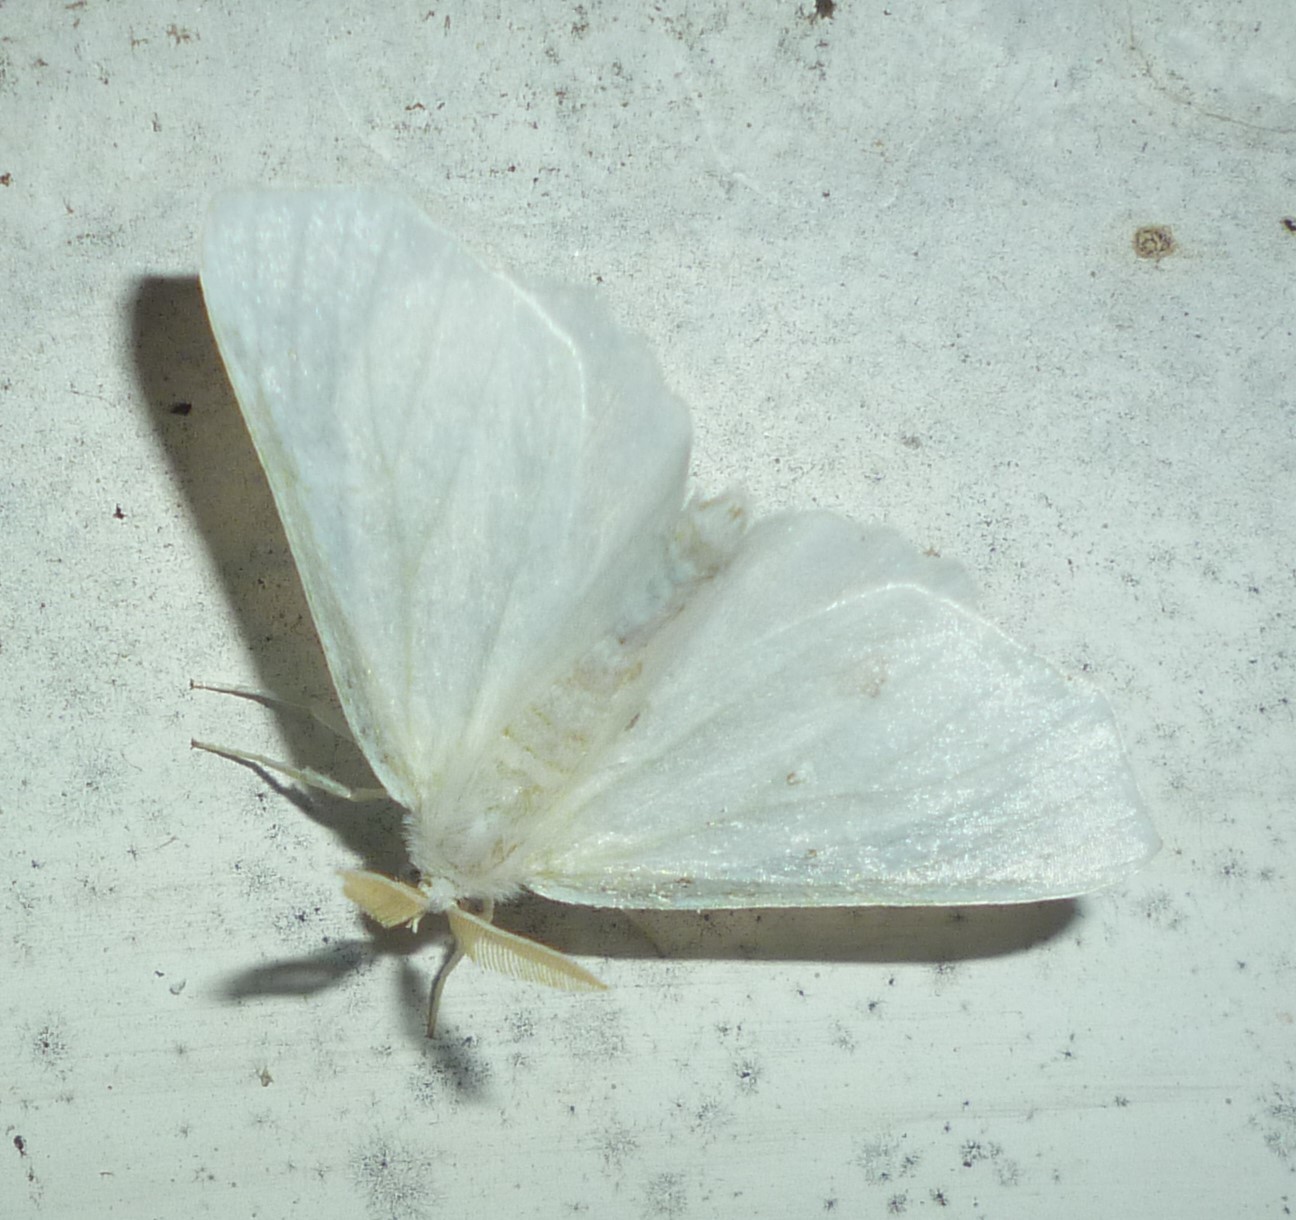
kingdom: Animalia
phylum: Arthropoda
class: Insecta
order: Lepidoptera
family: Geometridae
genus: Ennomos
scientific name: Ennomos subsignaria
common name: Elm spanworm
